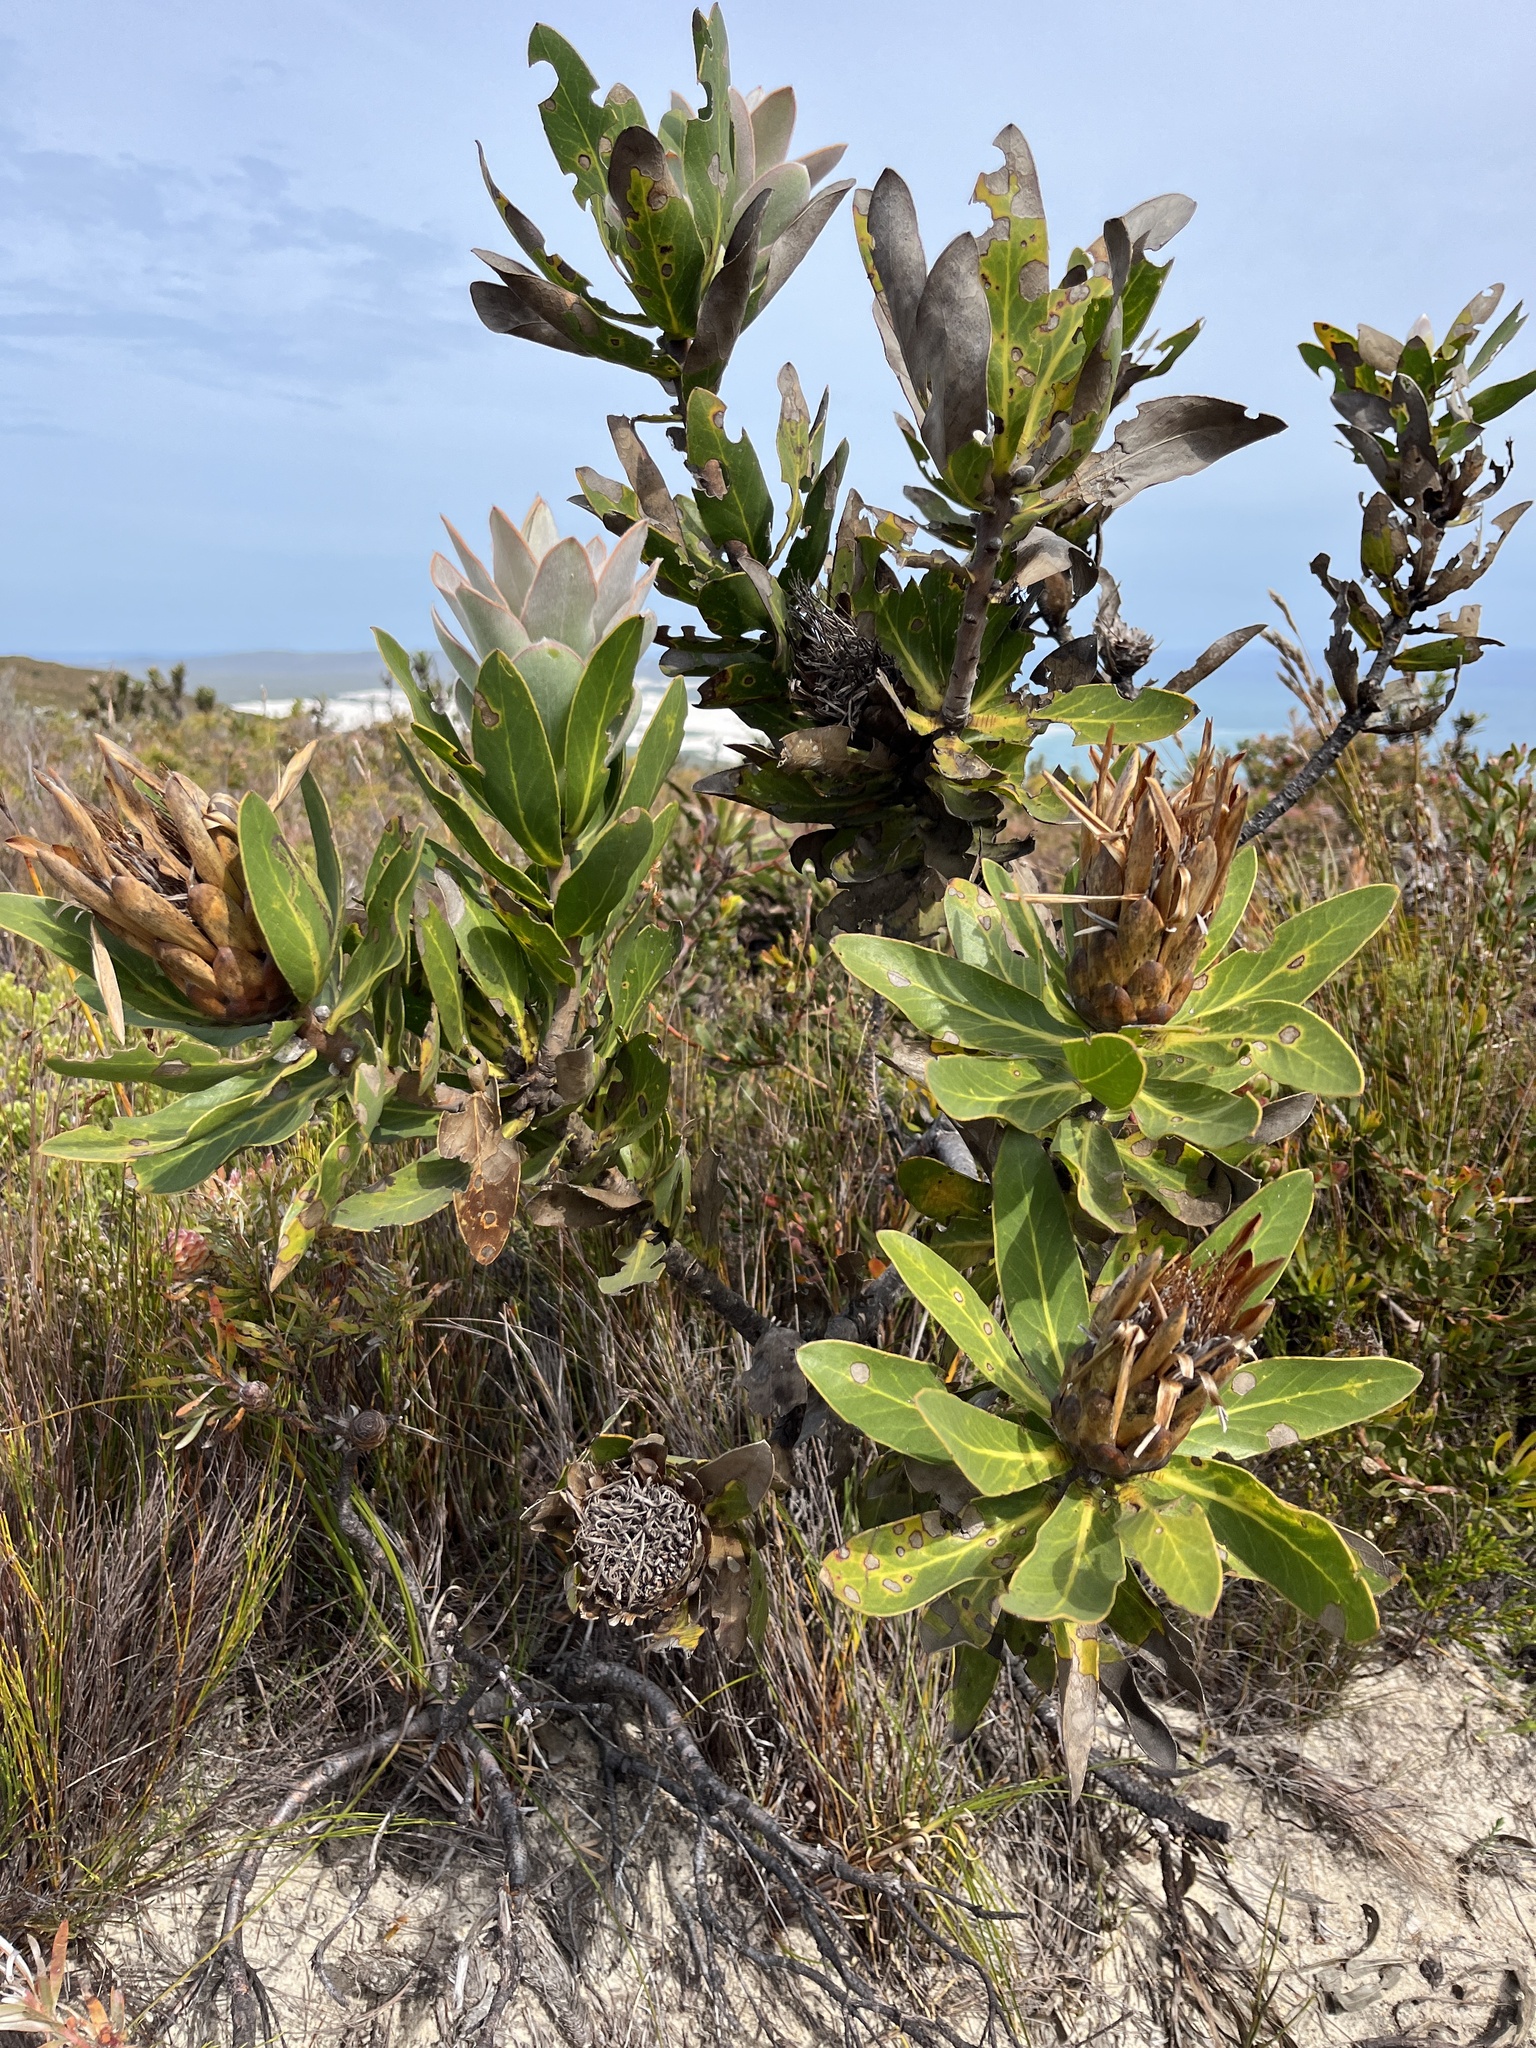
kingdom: Plantae
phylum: Tracheophyta
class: Magnoliopsida
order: Proteales
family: Proteaceae
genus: Protea
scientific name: Protea compacta
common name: Bot river protea
